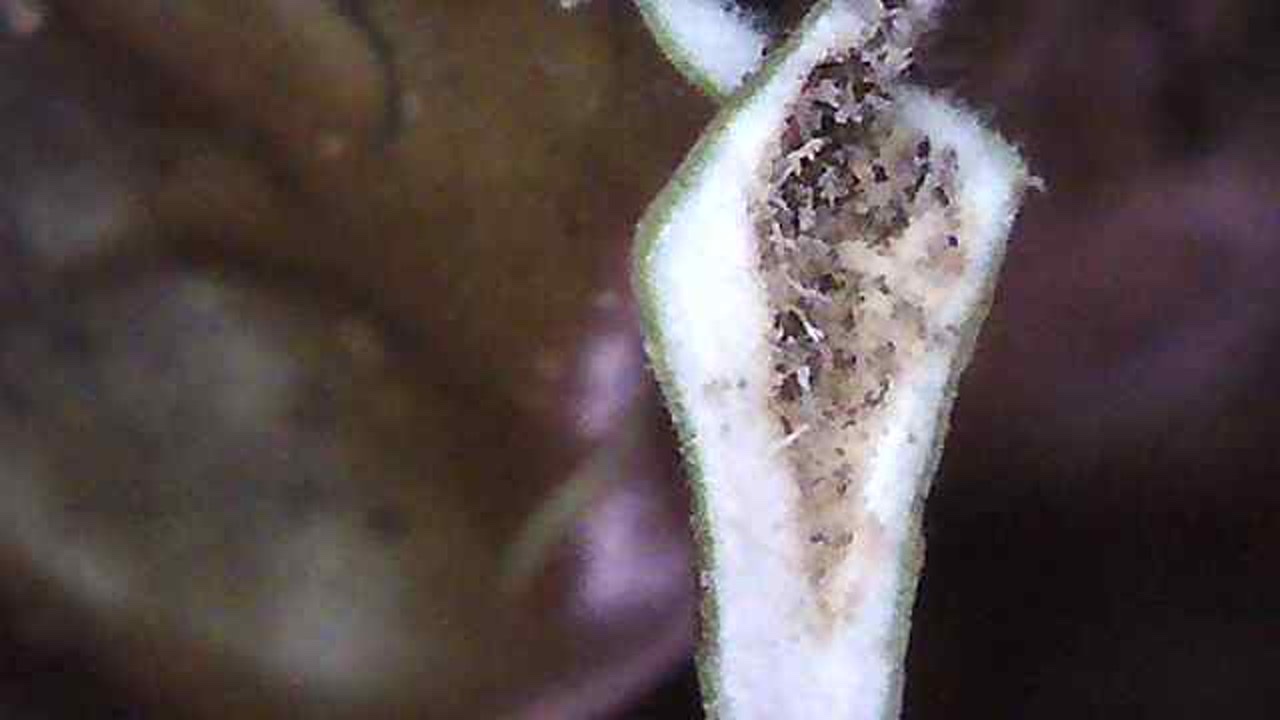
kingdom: Fungi
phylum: Ascomycota
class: Lecanoromycetes
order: Peltigerales
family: Lobariaceae
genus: Lobaria
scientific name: Lobaria pulmonaria
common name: Lungwort
